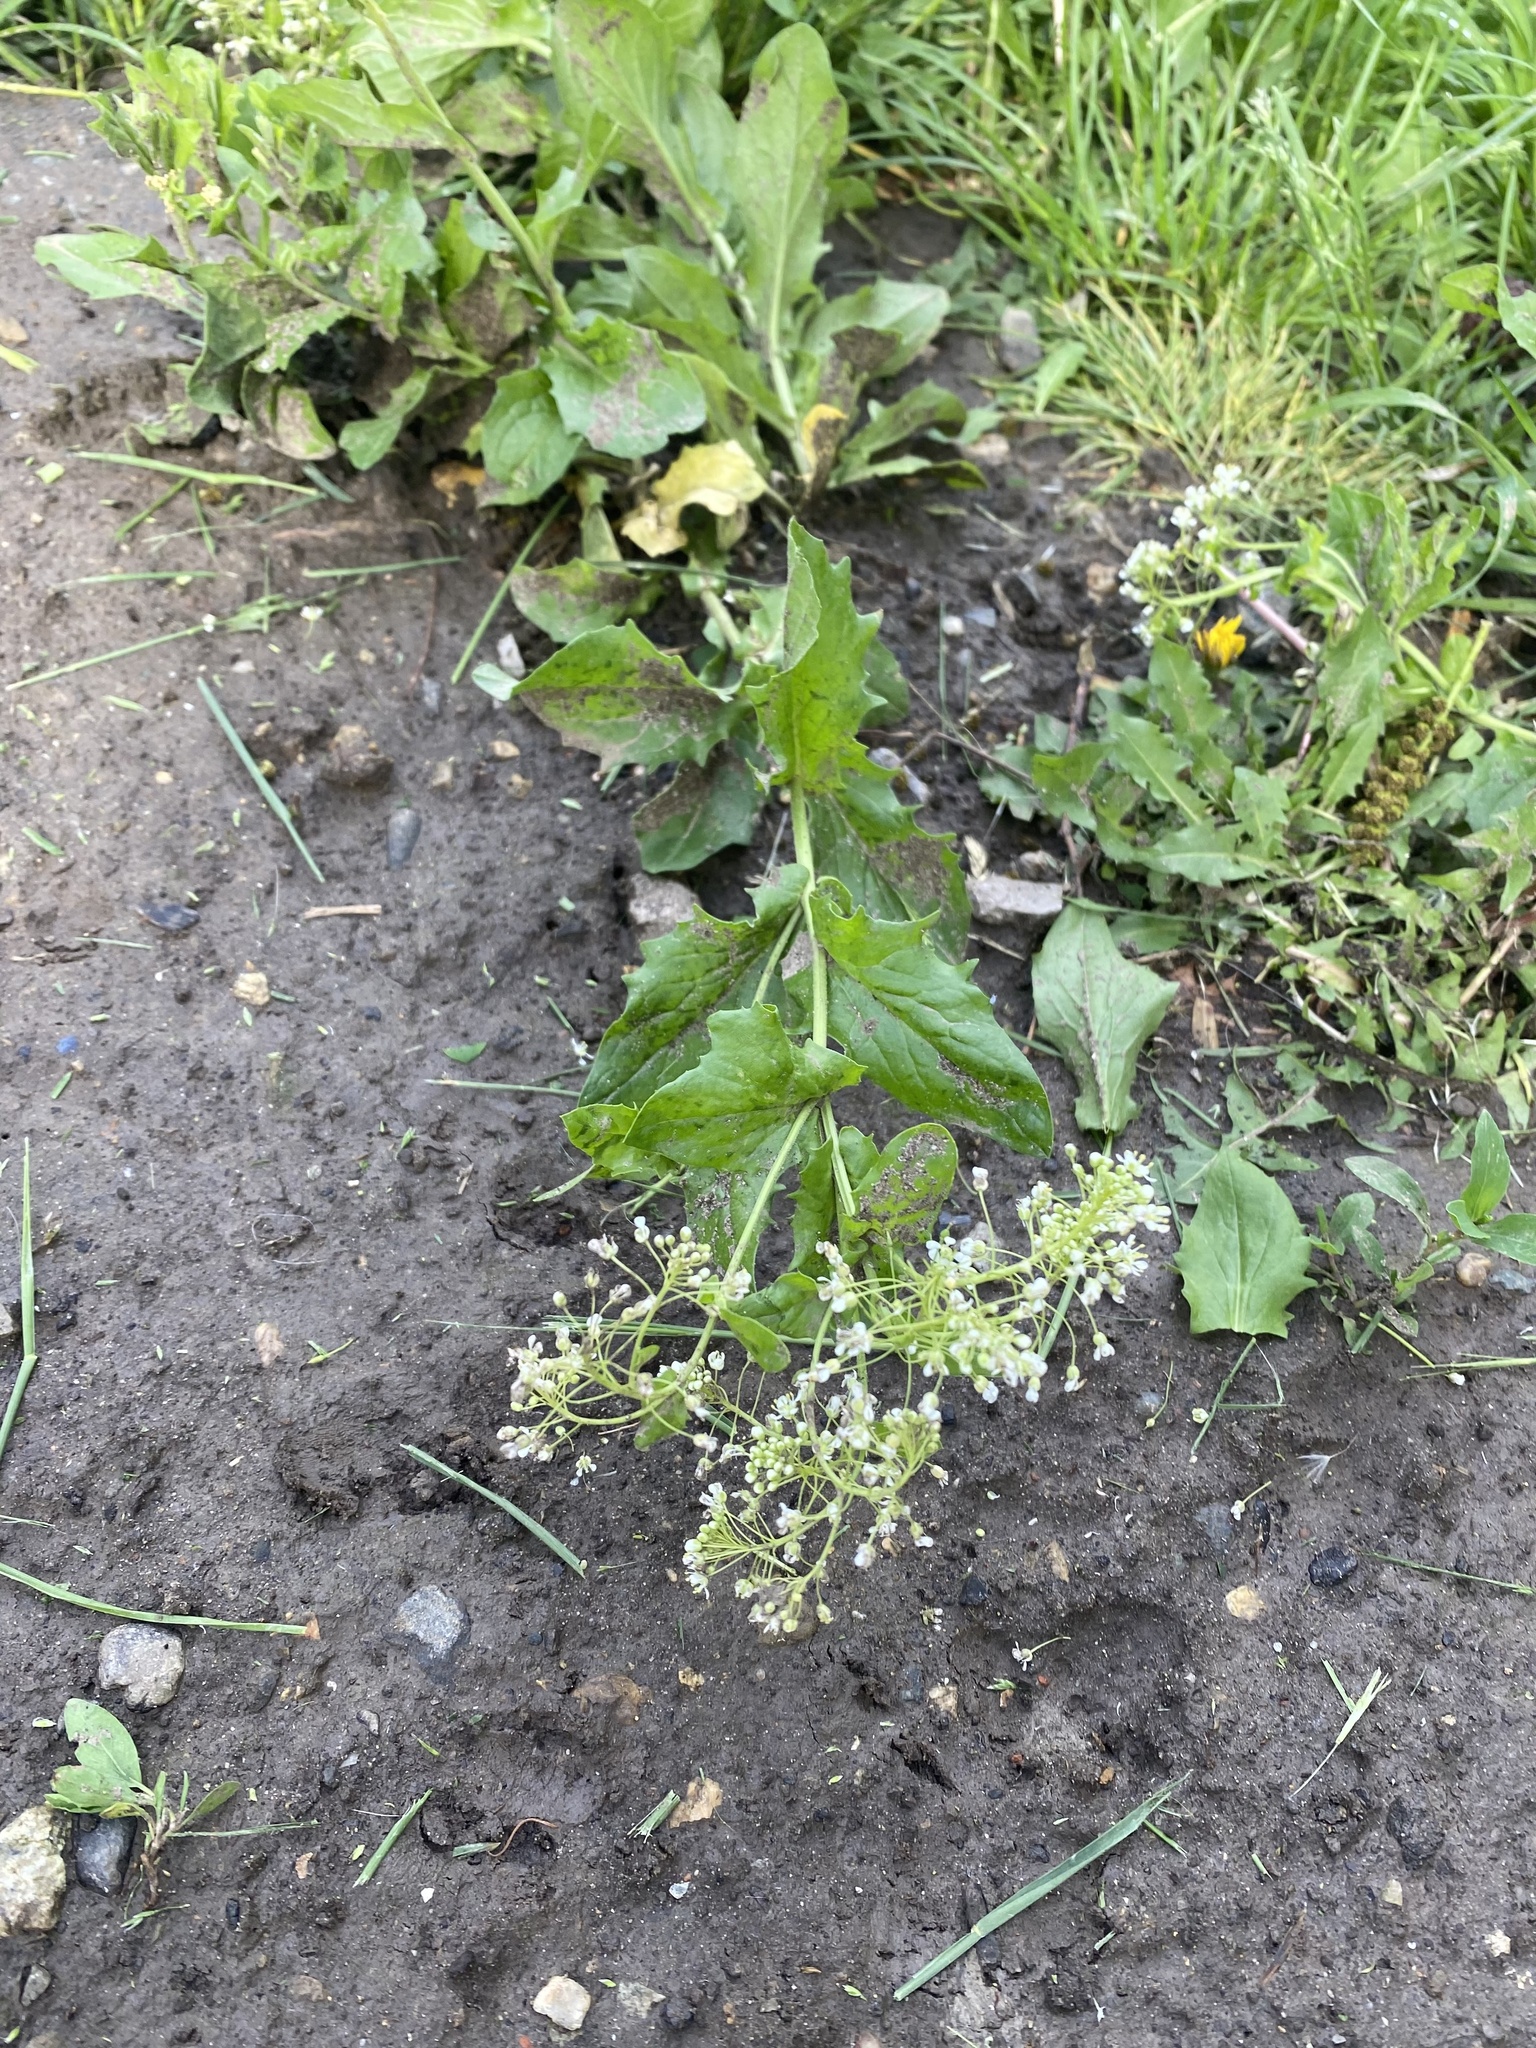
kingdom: Plantae
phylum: Tracheophyta
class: Magnoliopsida
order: Brassicales
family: Brassicaceae
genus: Lepidium
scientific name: Lepidium draba
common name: Hoary cress
